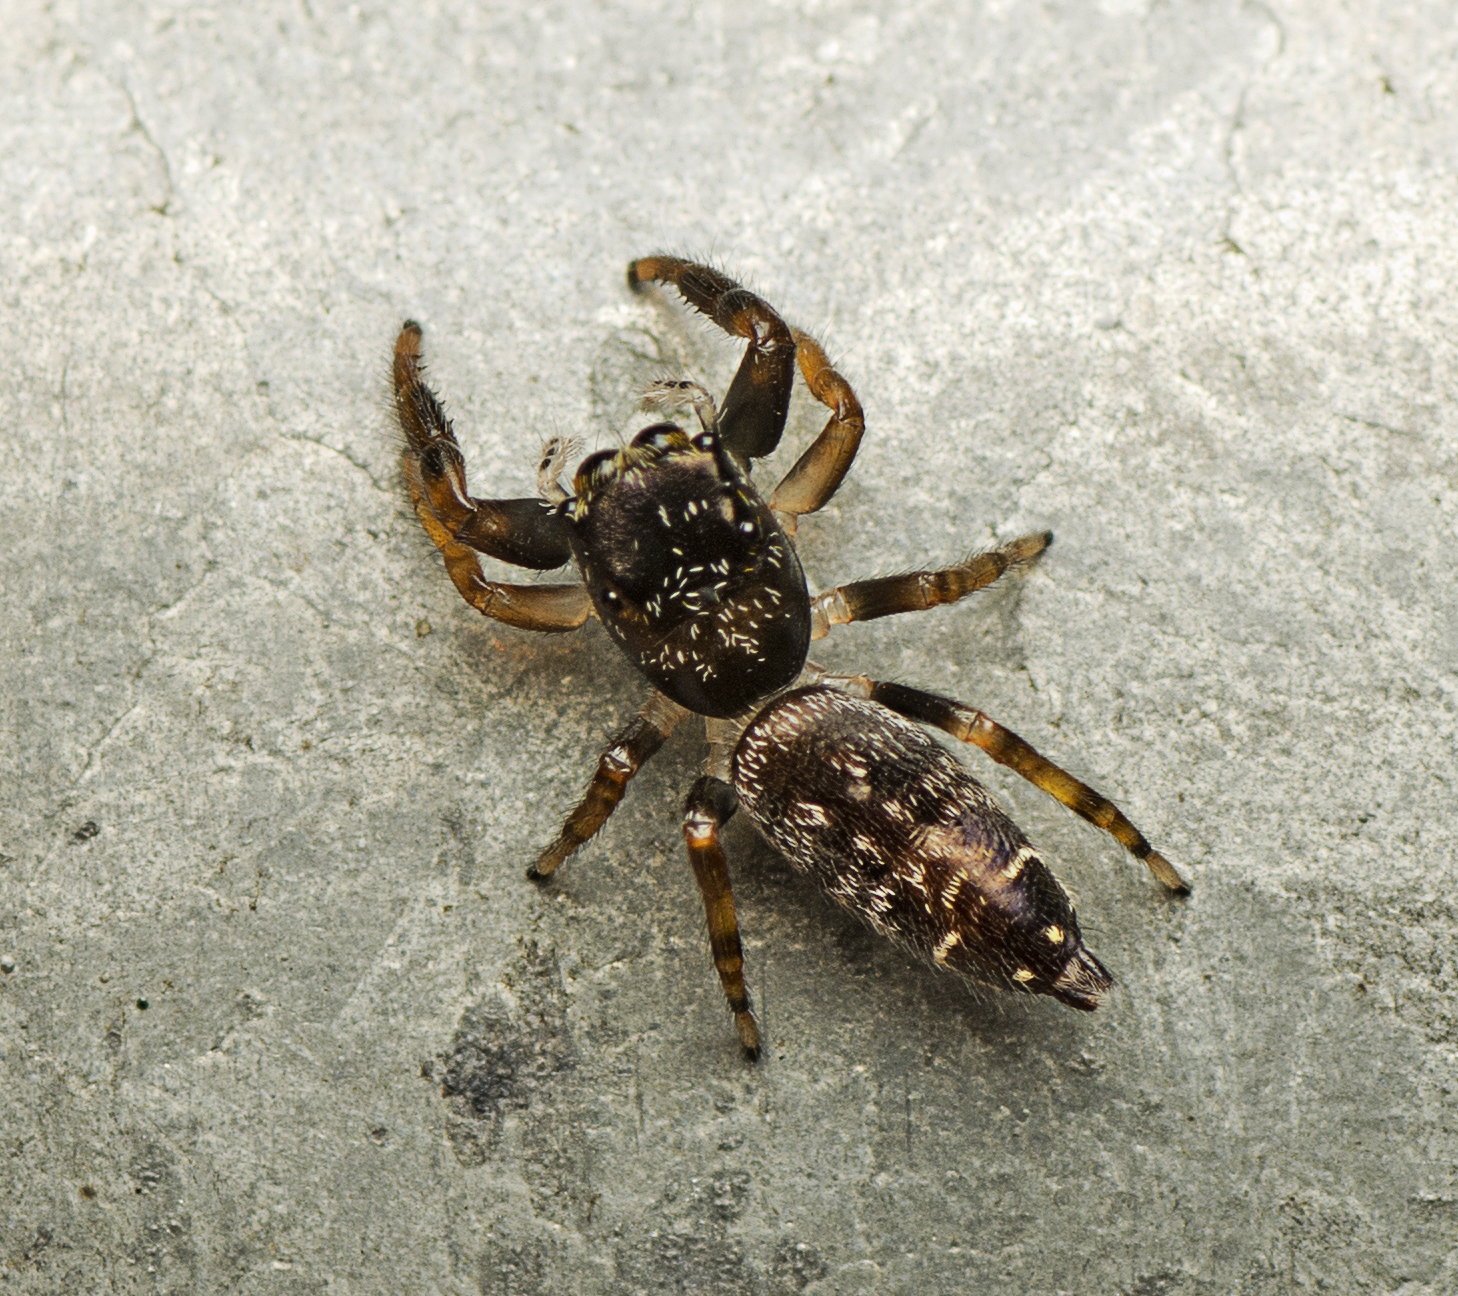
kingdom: Animalia
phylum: Arthropoda
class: Arachnida
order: Araneae
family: Salticidae
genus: Pungalina
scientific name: Pungalina plurilineata
